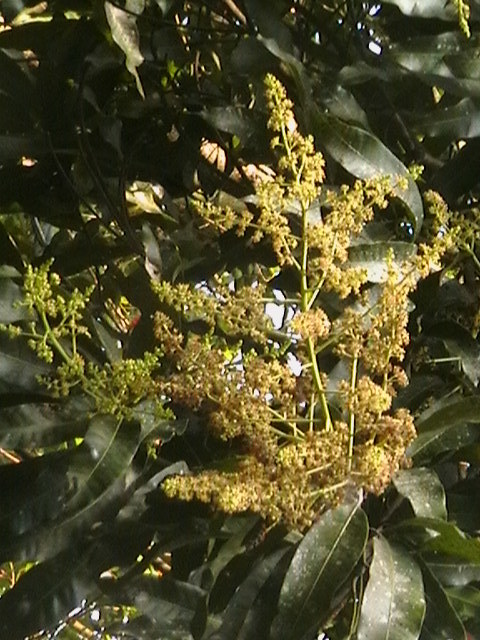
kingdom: Plantae
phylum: Tracheophyta
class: Magnoliopsida
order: Sapindales
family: Anacardiaceae
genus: Mangifera
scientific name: Mangifera indica
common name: Mango
